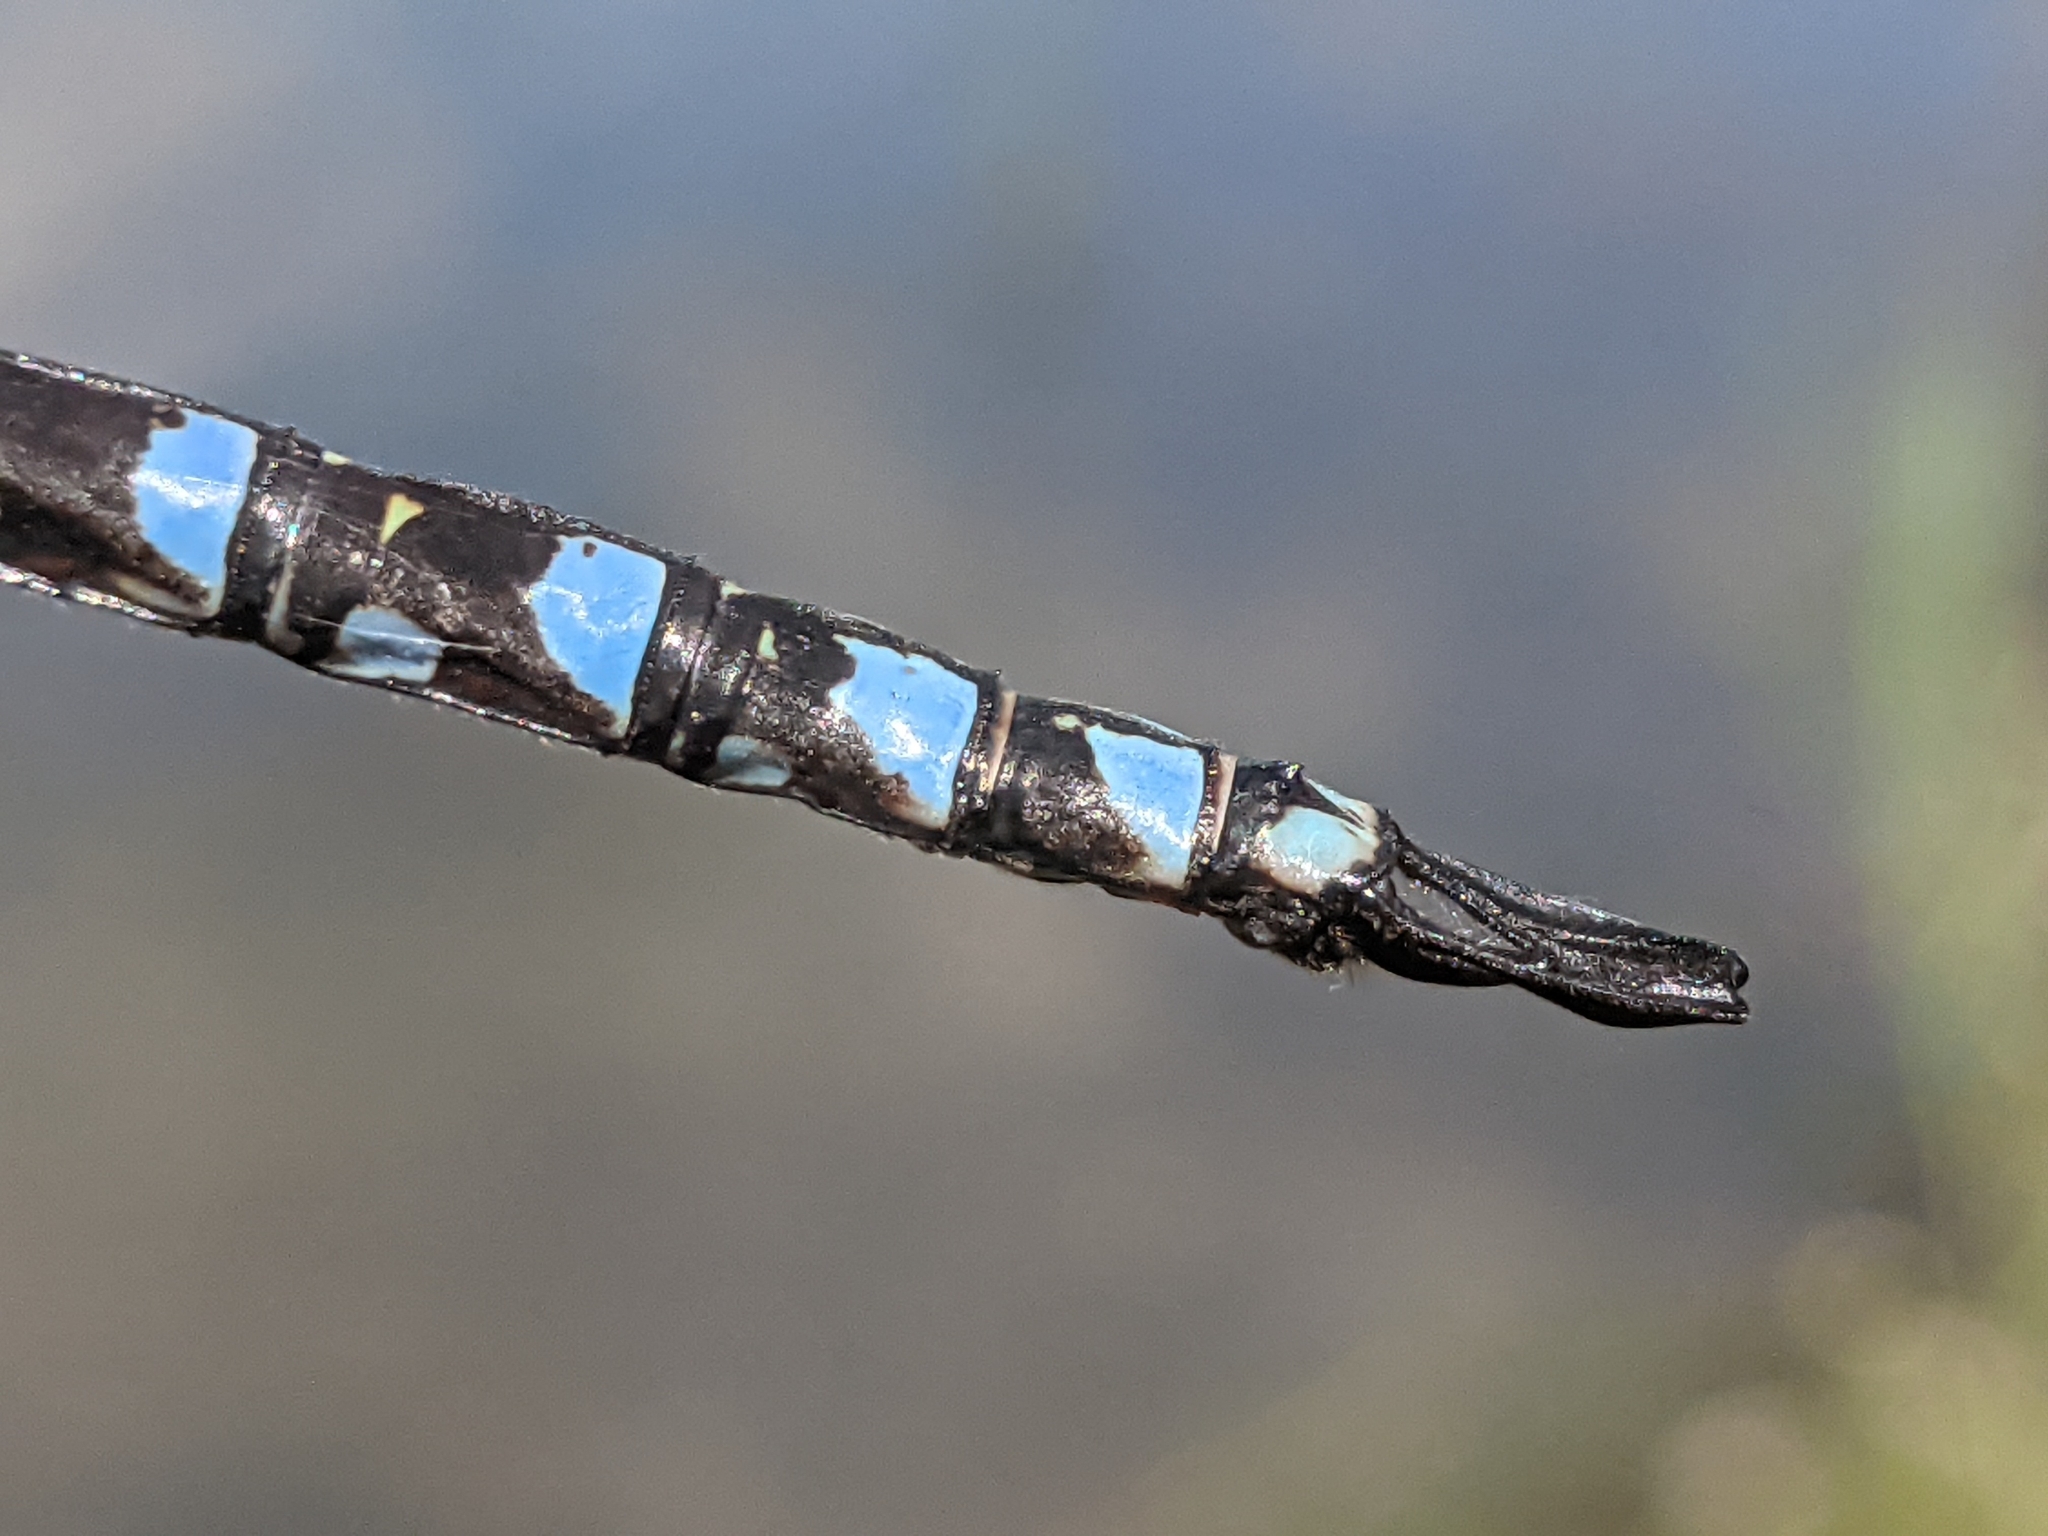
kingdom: Animalia
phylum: Arthropoda
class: Insecta
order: Odonata
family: Aeshnidae
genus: Aeshna
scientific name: Aeshna eremita
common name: Lake darner
